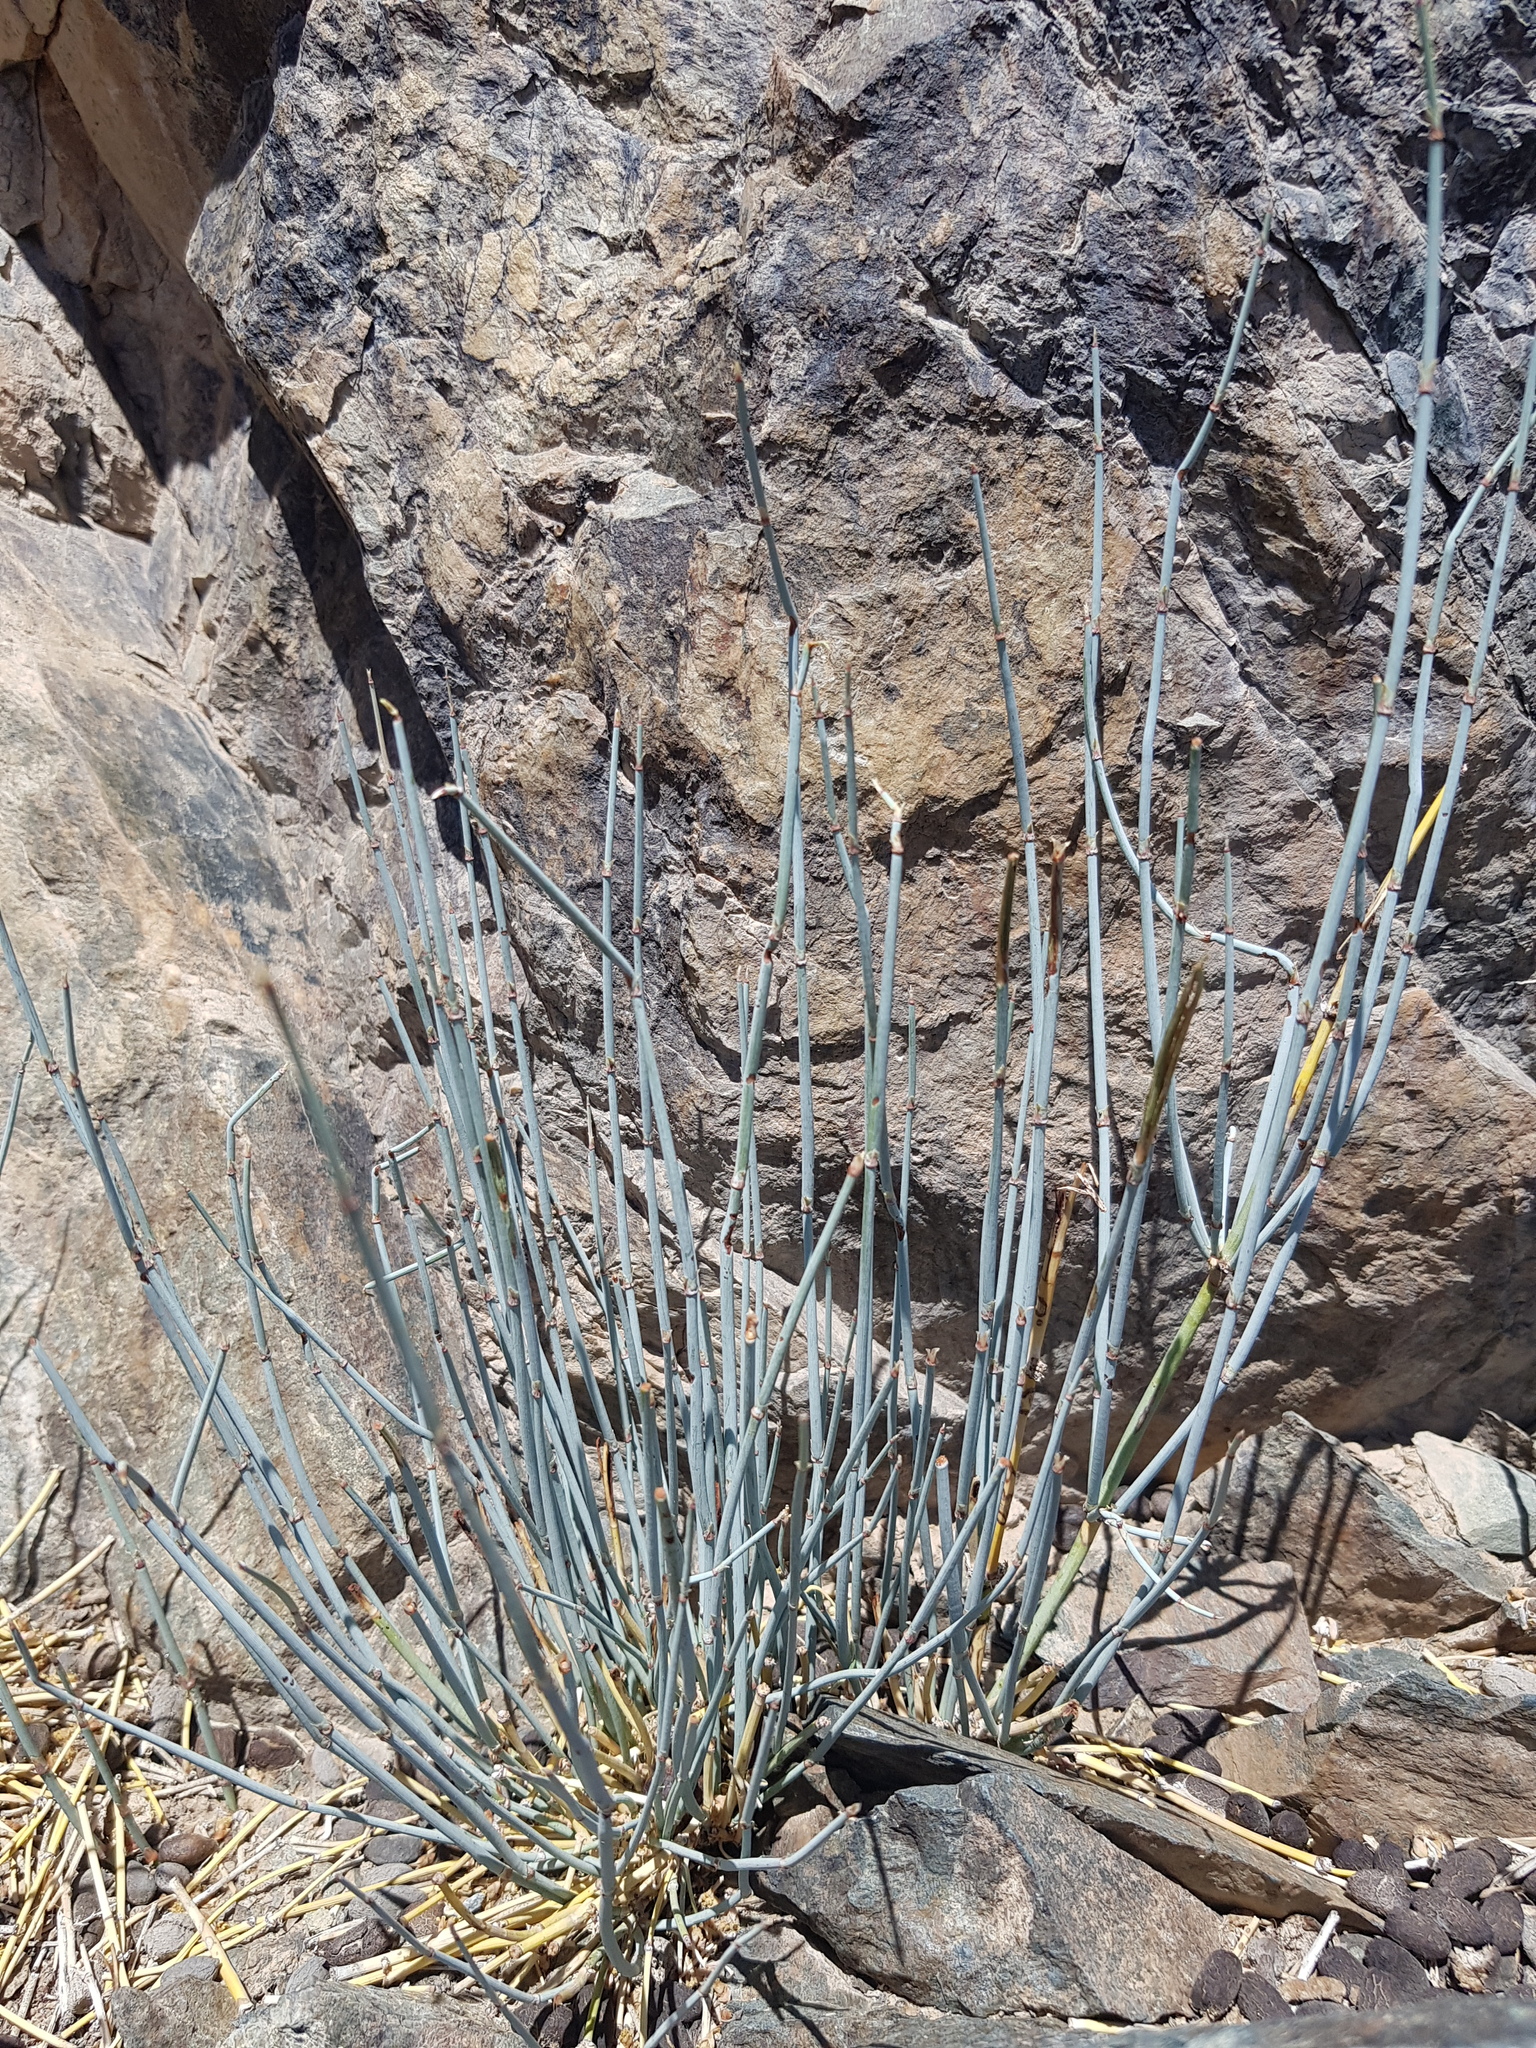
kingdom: Plantae
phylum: Tracheophyta
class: Gnetopsida
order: Ephedrales
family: Ephedraceae
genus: Ephedra
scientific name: Ephedra equisetina
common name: Mongolian ephedra
